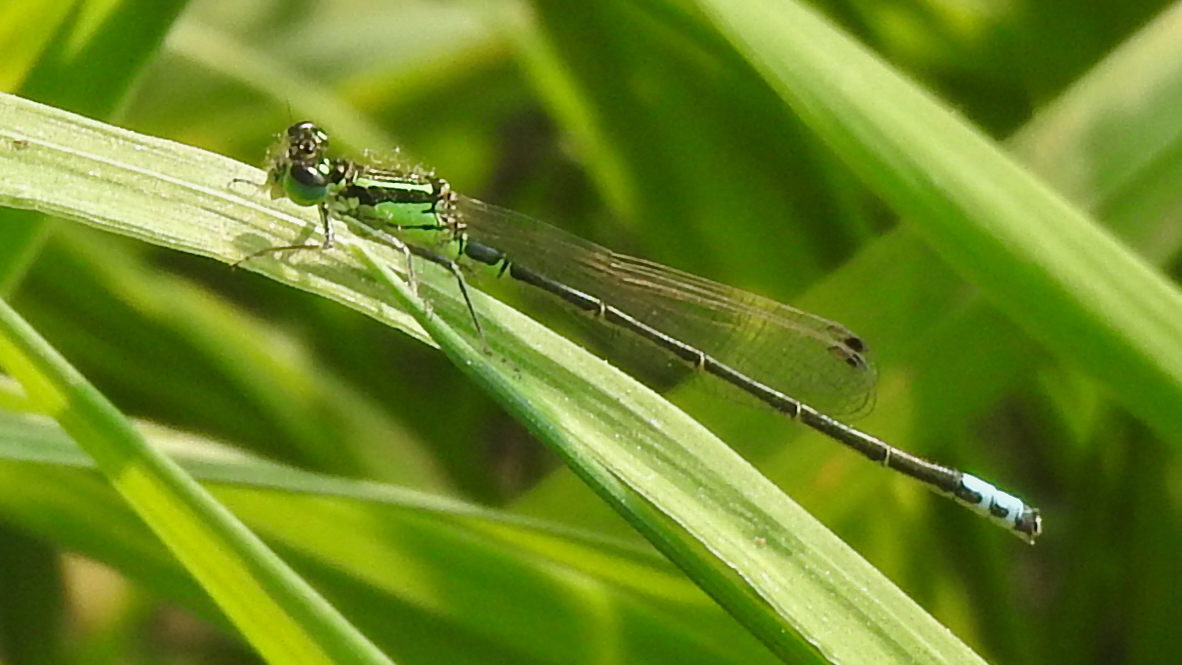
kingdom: Animalia
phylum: Arthropoda
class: Insecta
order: Odonata
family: Coenagrionidae
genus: Ischnura
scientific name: Ischnura verticalis
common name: Eastern forktail
